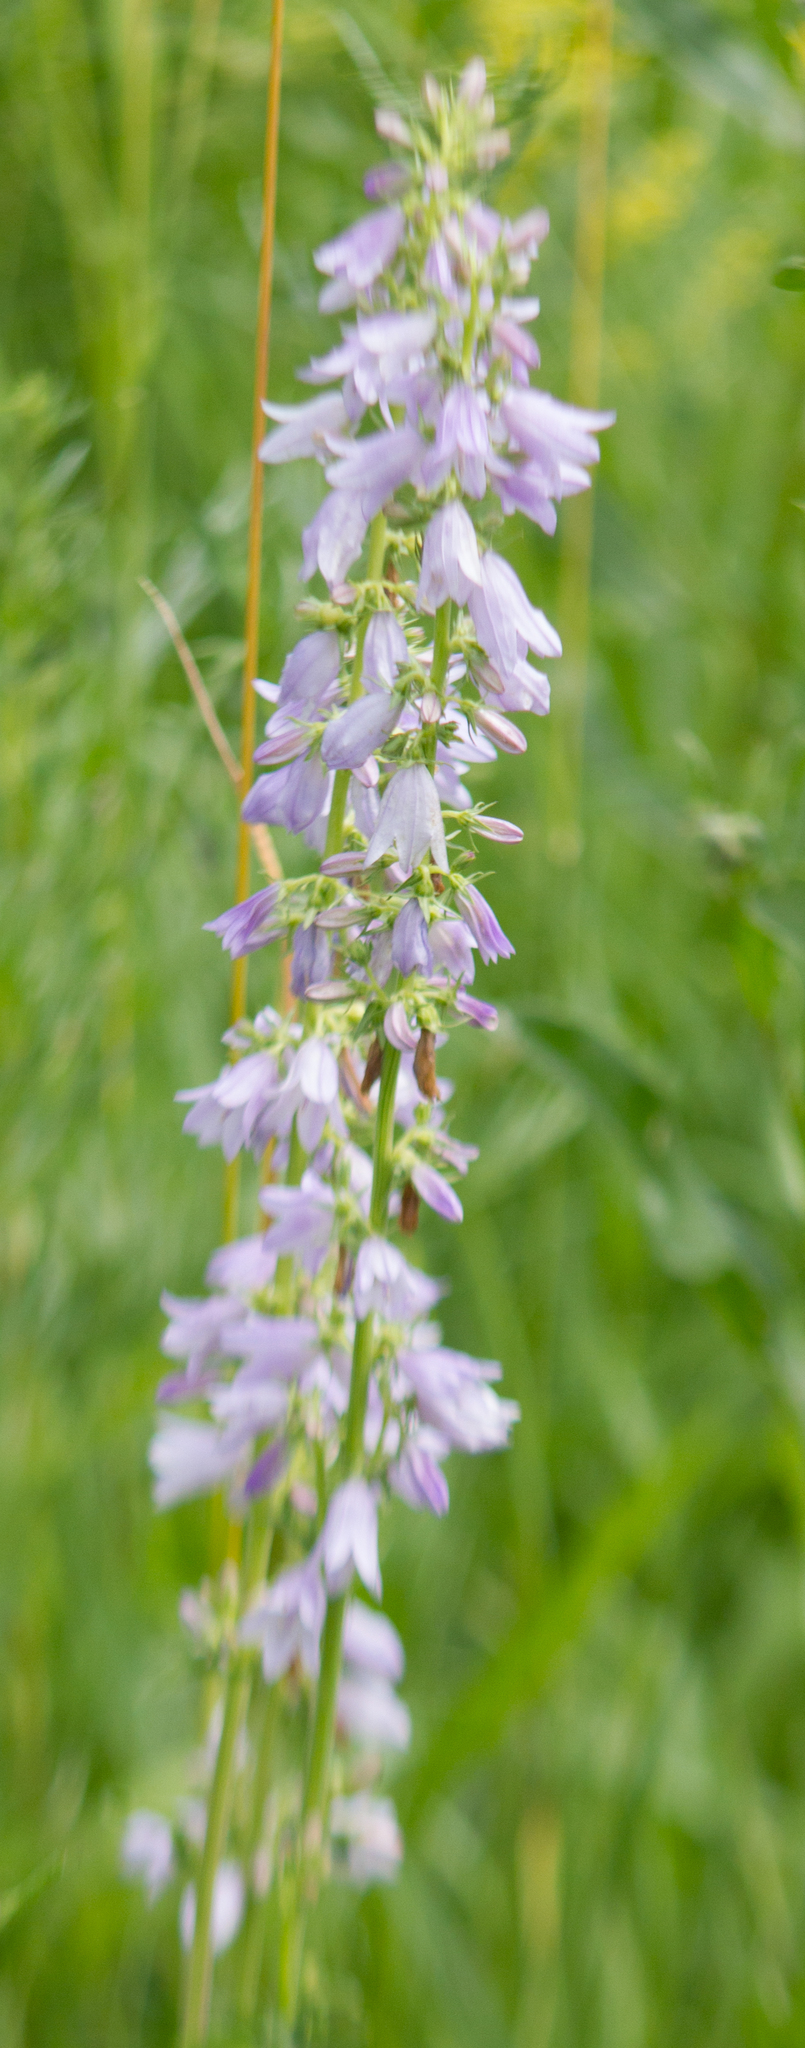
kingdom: Plantae
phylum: Tracheophyta
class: Magnoliopsida
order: Asterales
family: Campanulaceae
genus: Campanula
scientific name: Campanula bononiensis
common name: Pale bellflower
